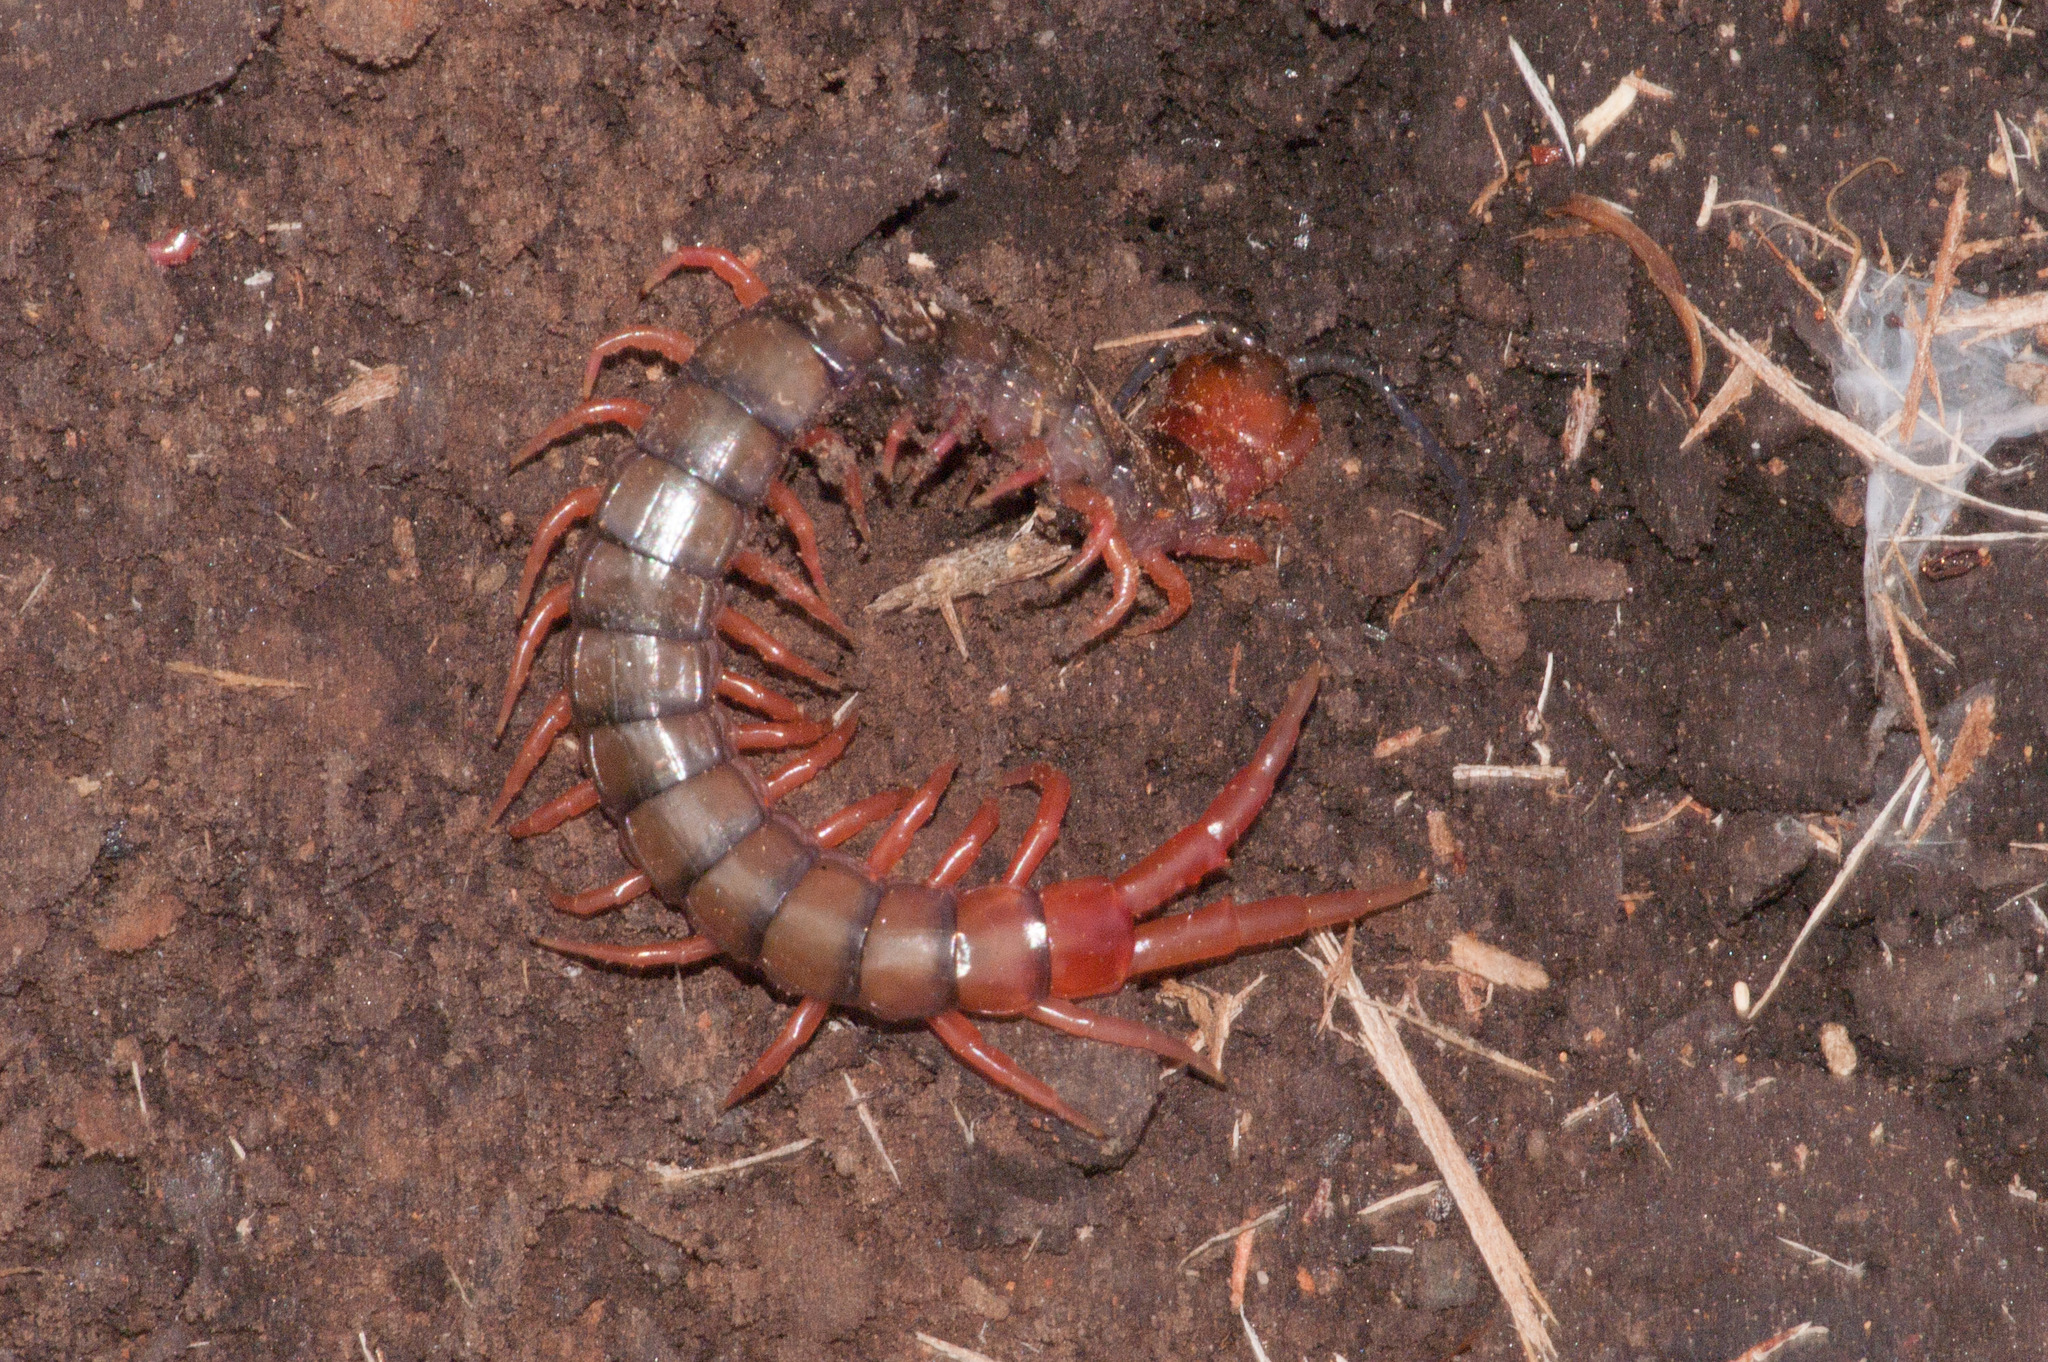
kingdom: Animalia
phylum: Arthropoda
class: Chilopoda
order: Scolopendromorpha
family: Scolopendridae
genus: Cormocephalus
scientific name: Cormocephalus aurantiipes
